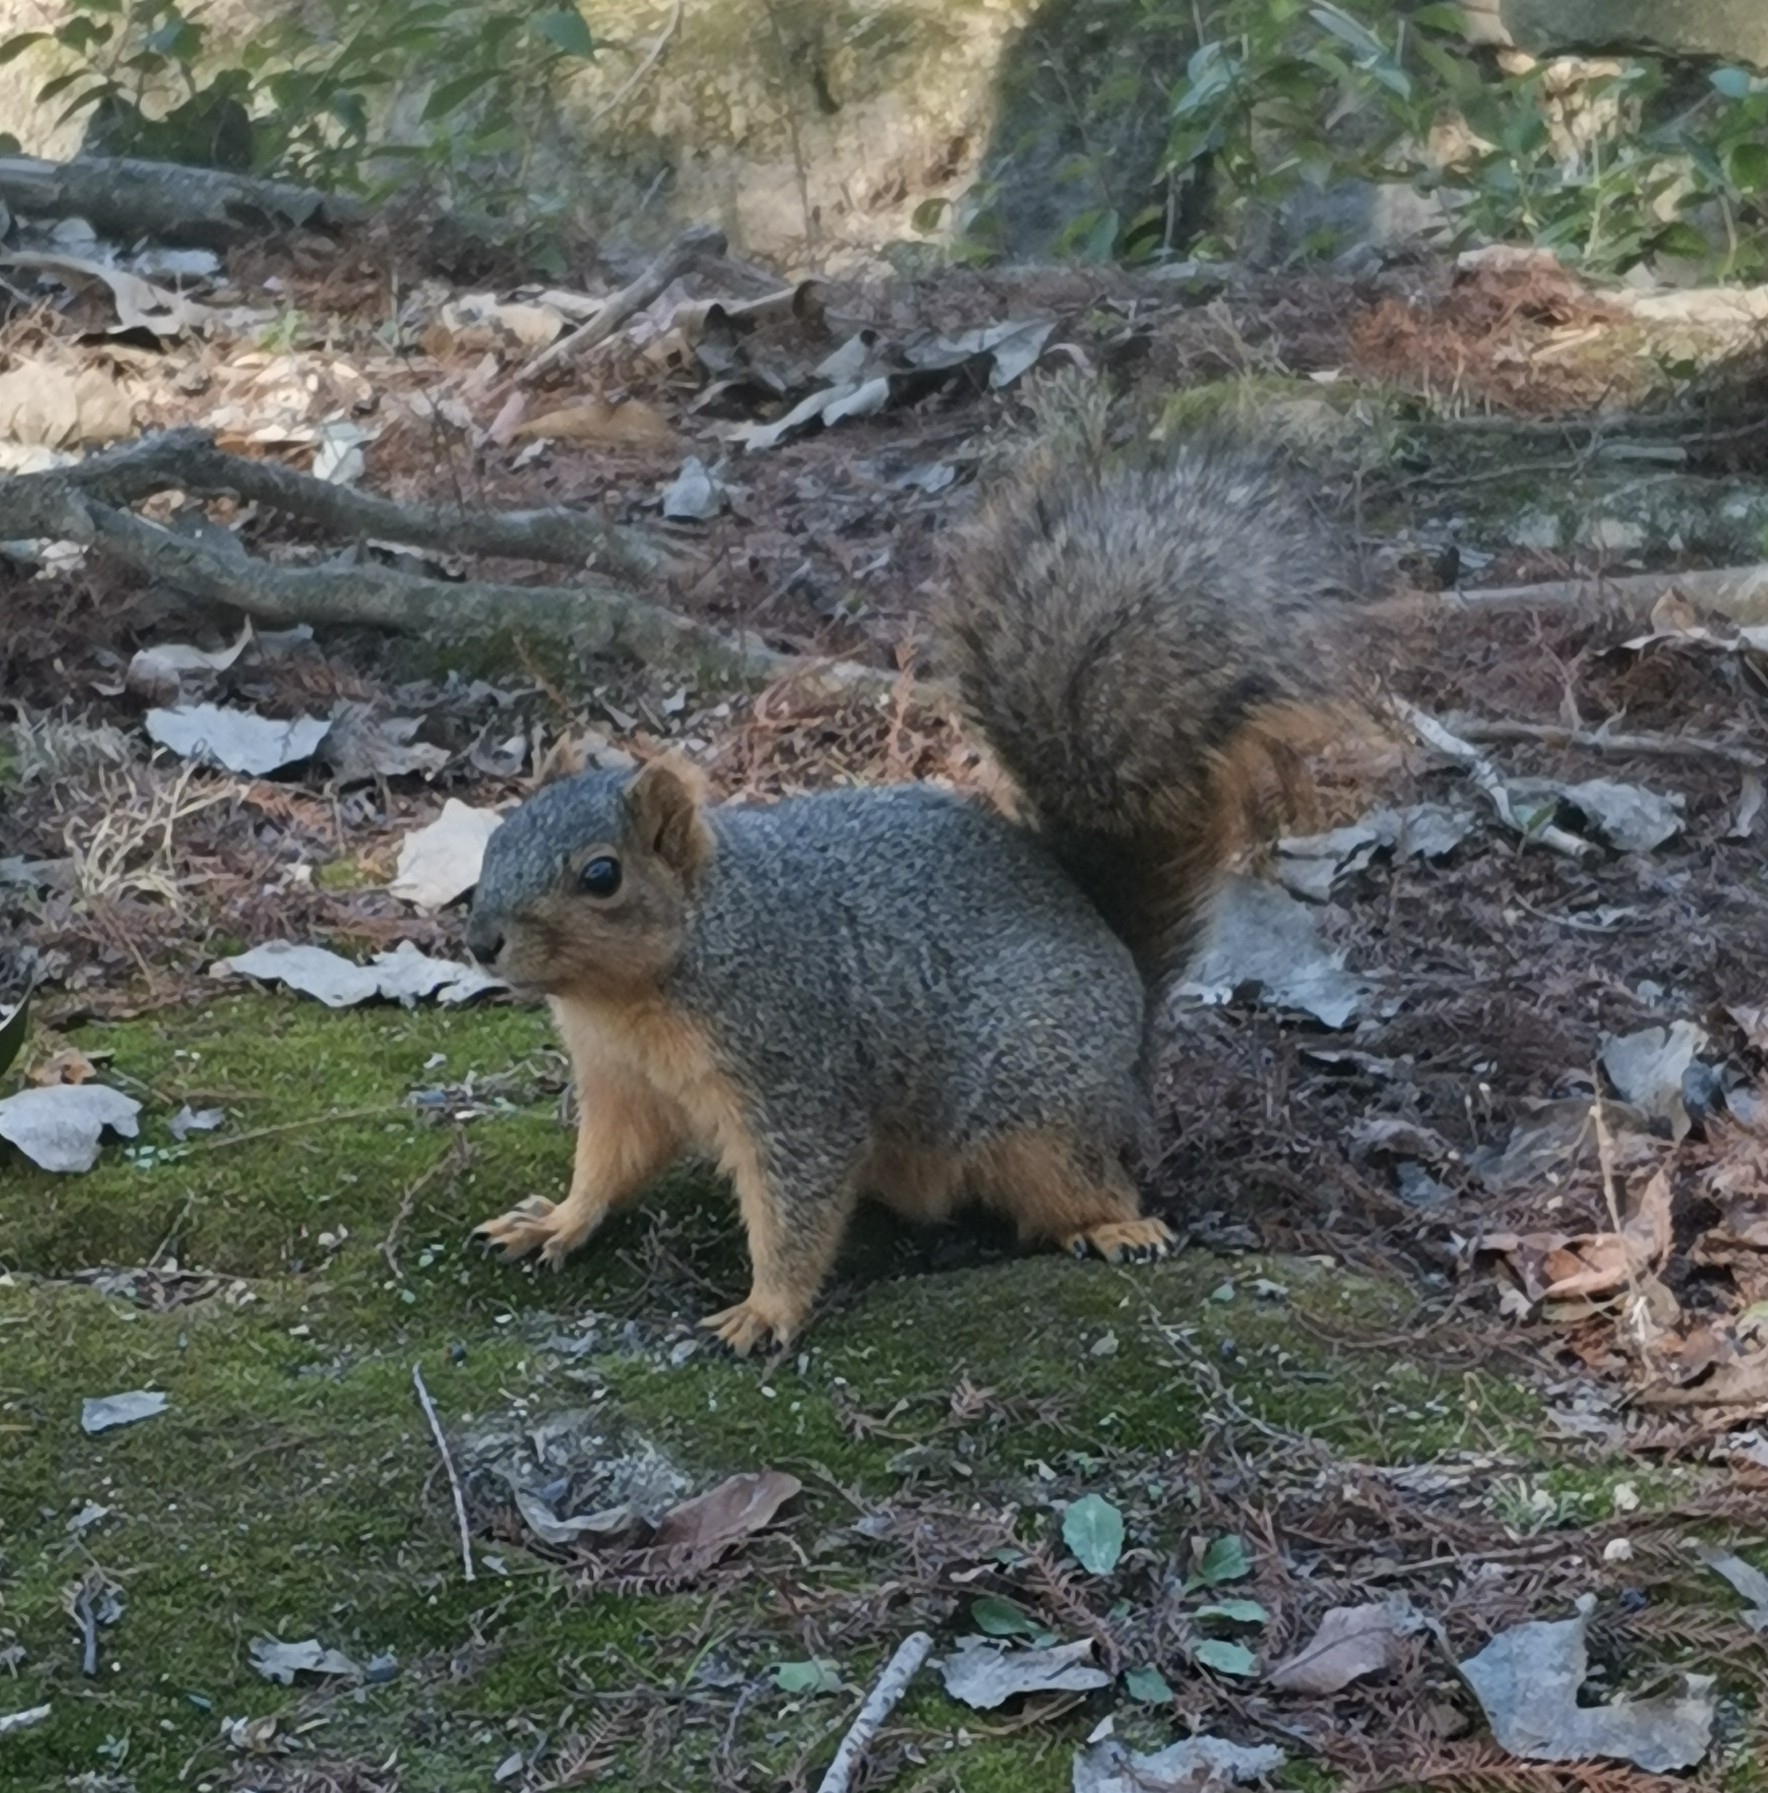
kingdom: Animalia
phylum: Chordata
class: Mammalia
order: Rodentia
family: Sciuridae
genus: Sciurus
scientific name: Sciurus niger
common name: Fox squirrel
